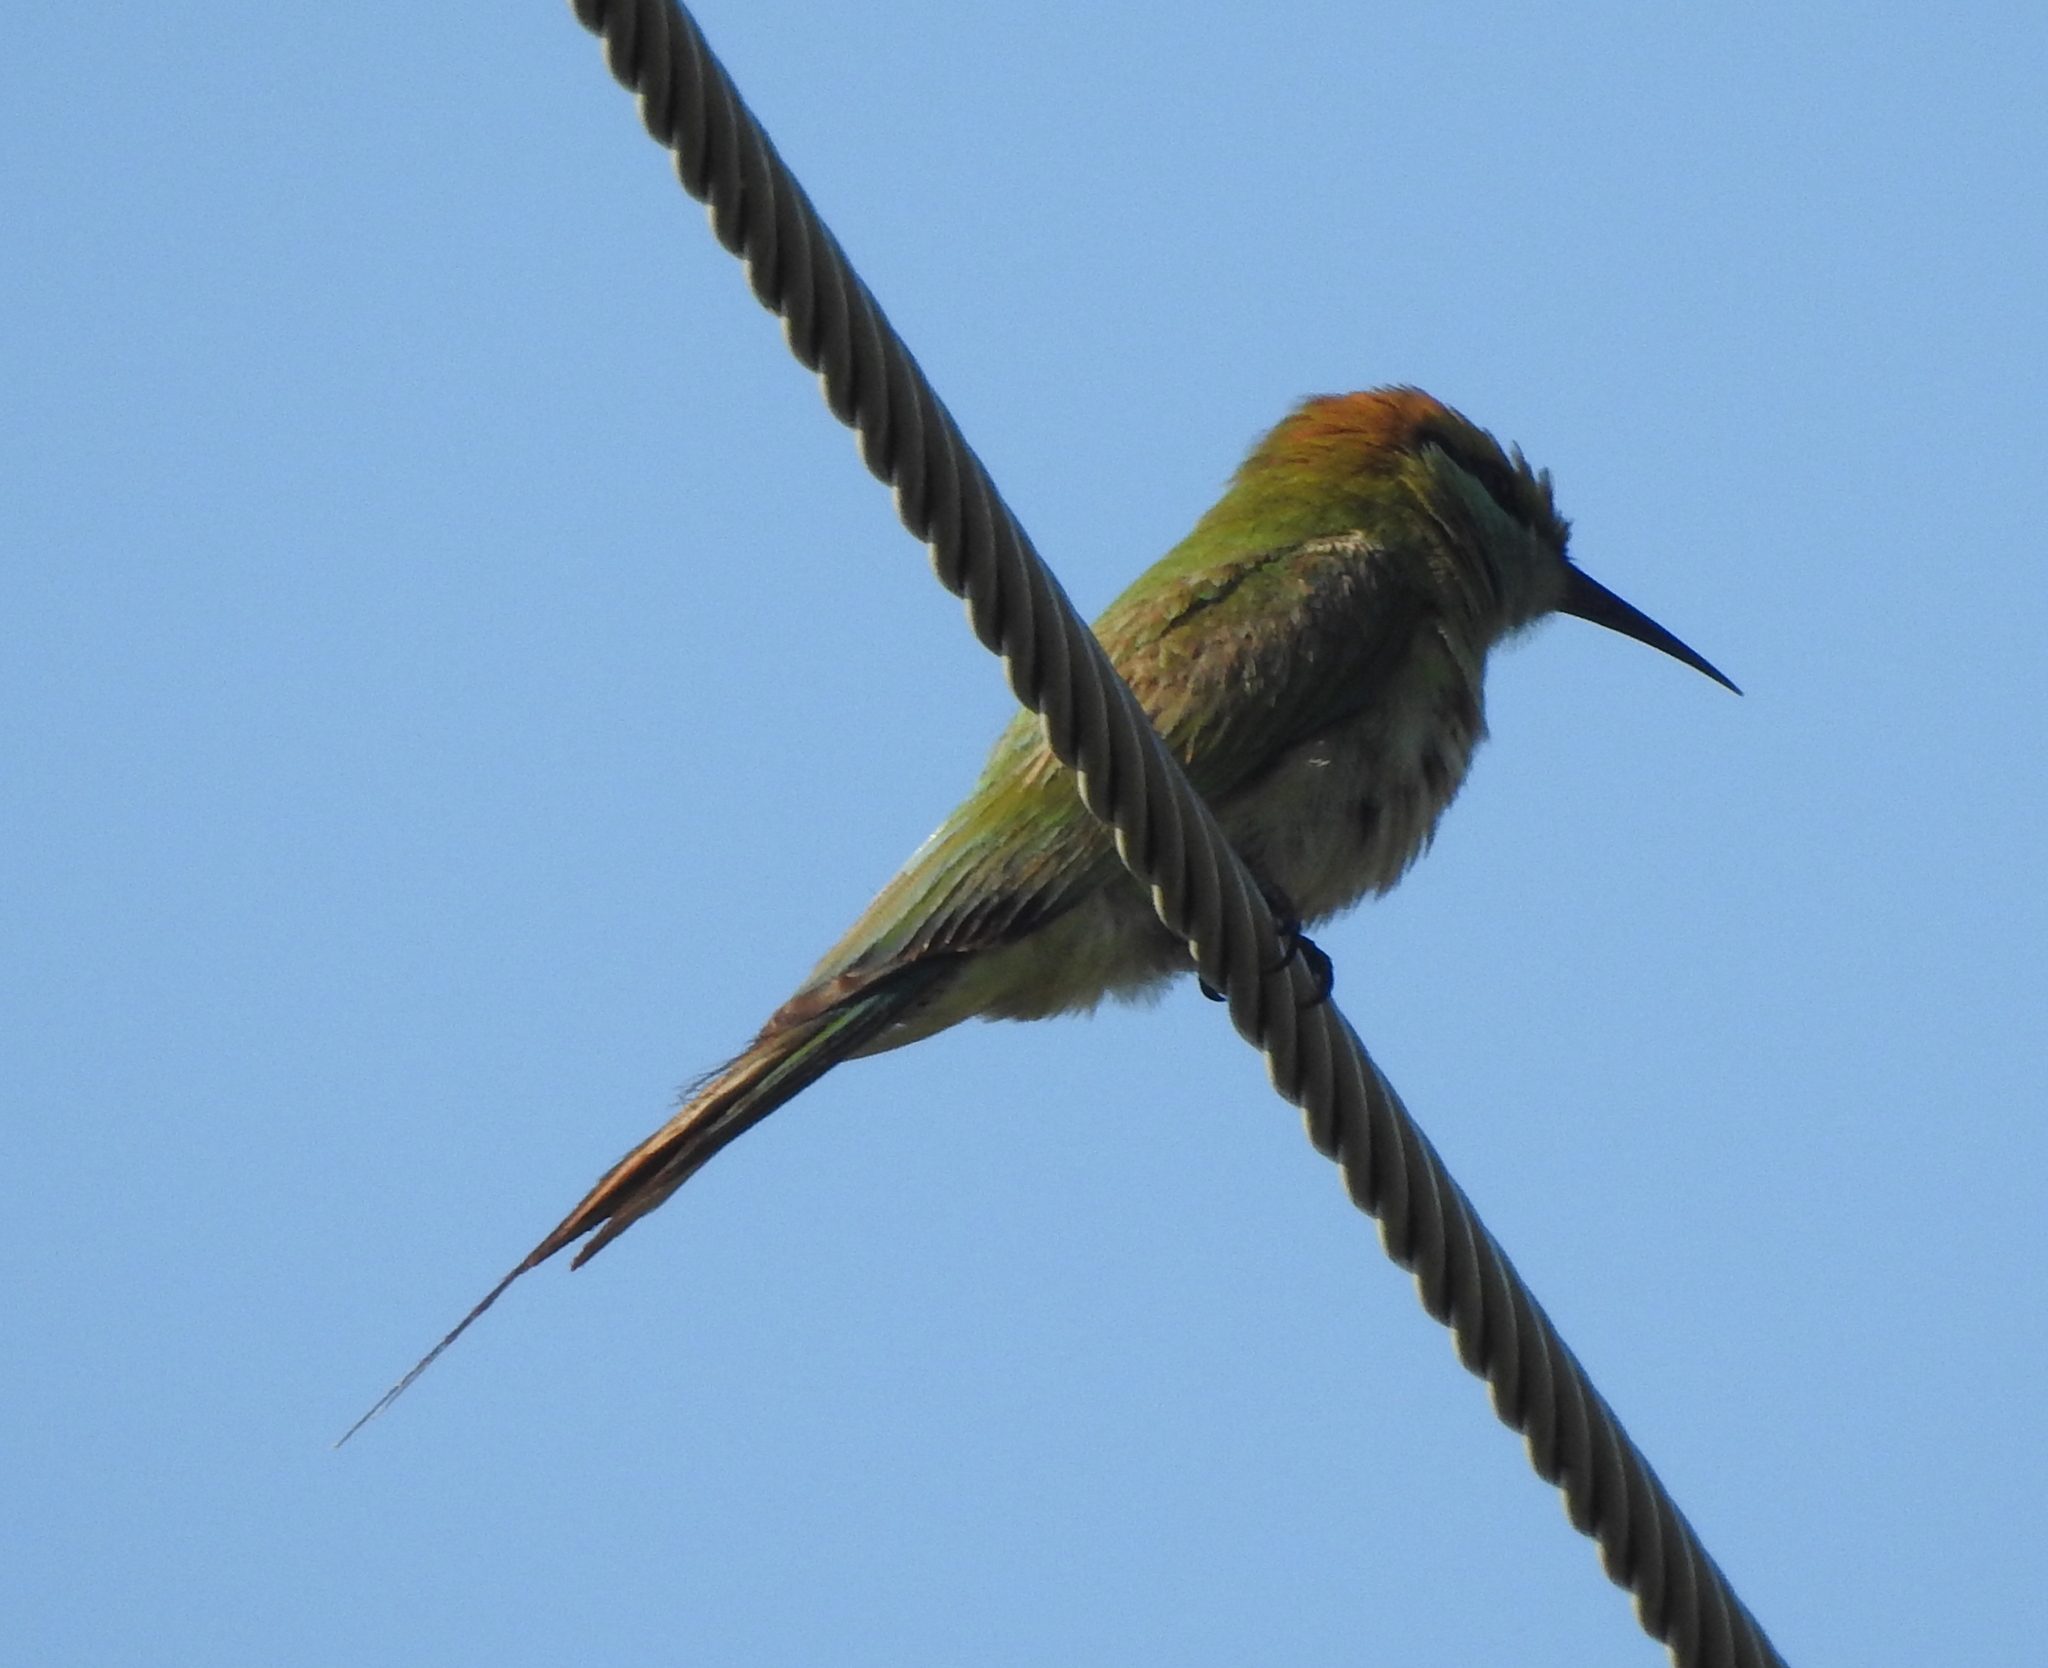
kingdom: Animalia
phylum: Chordata
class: Aves
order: Coraciiformes
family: Meropidae
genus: Merops
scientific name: Merops orientalis
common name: Green bee-eater
